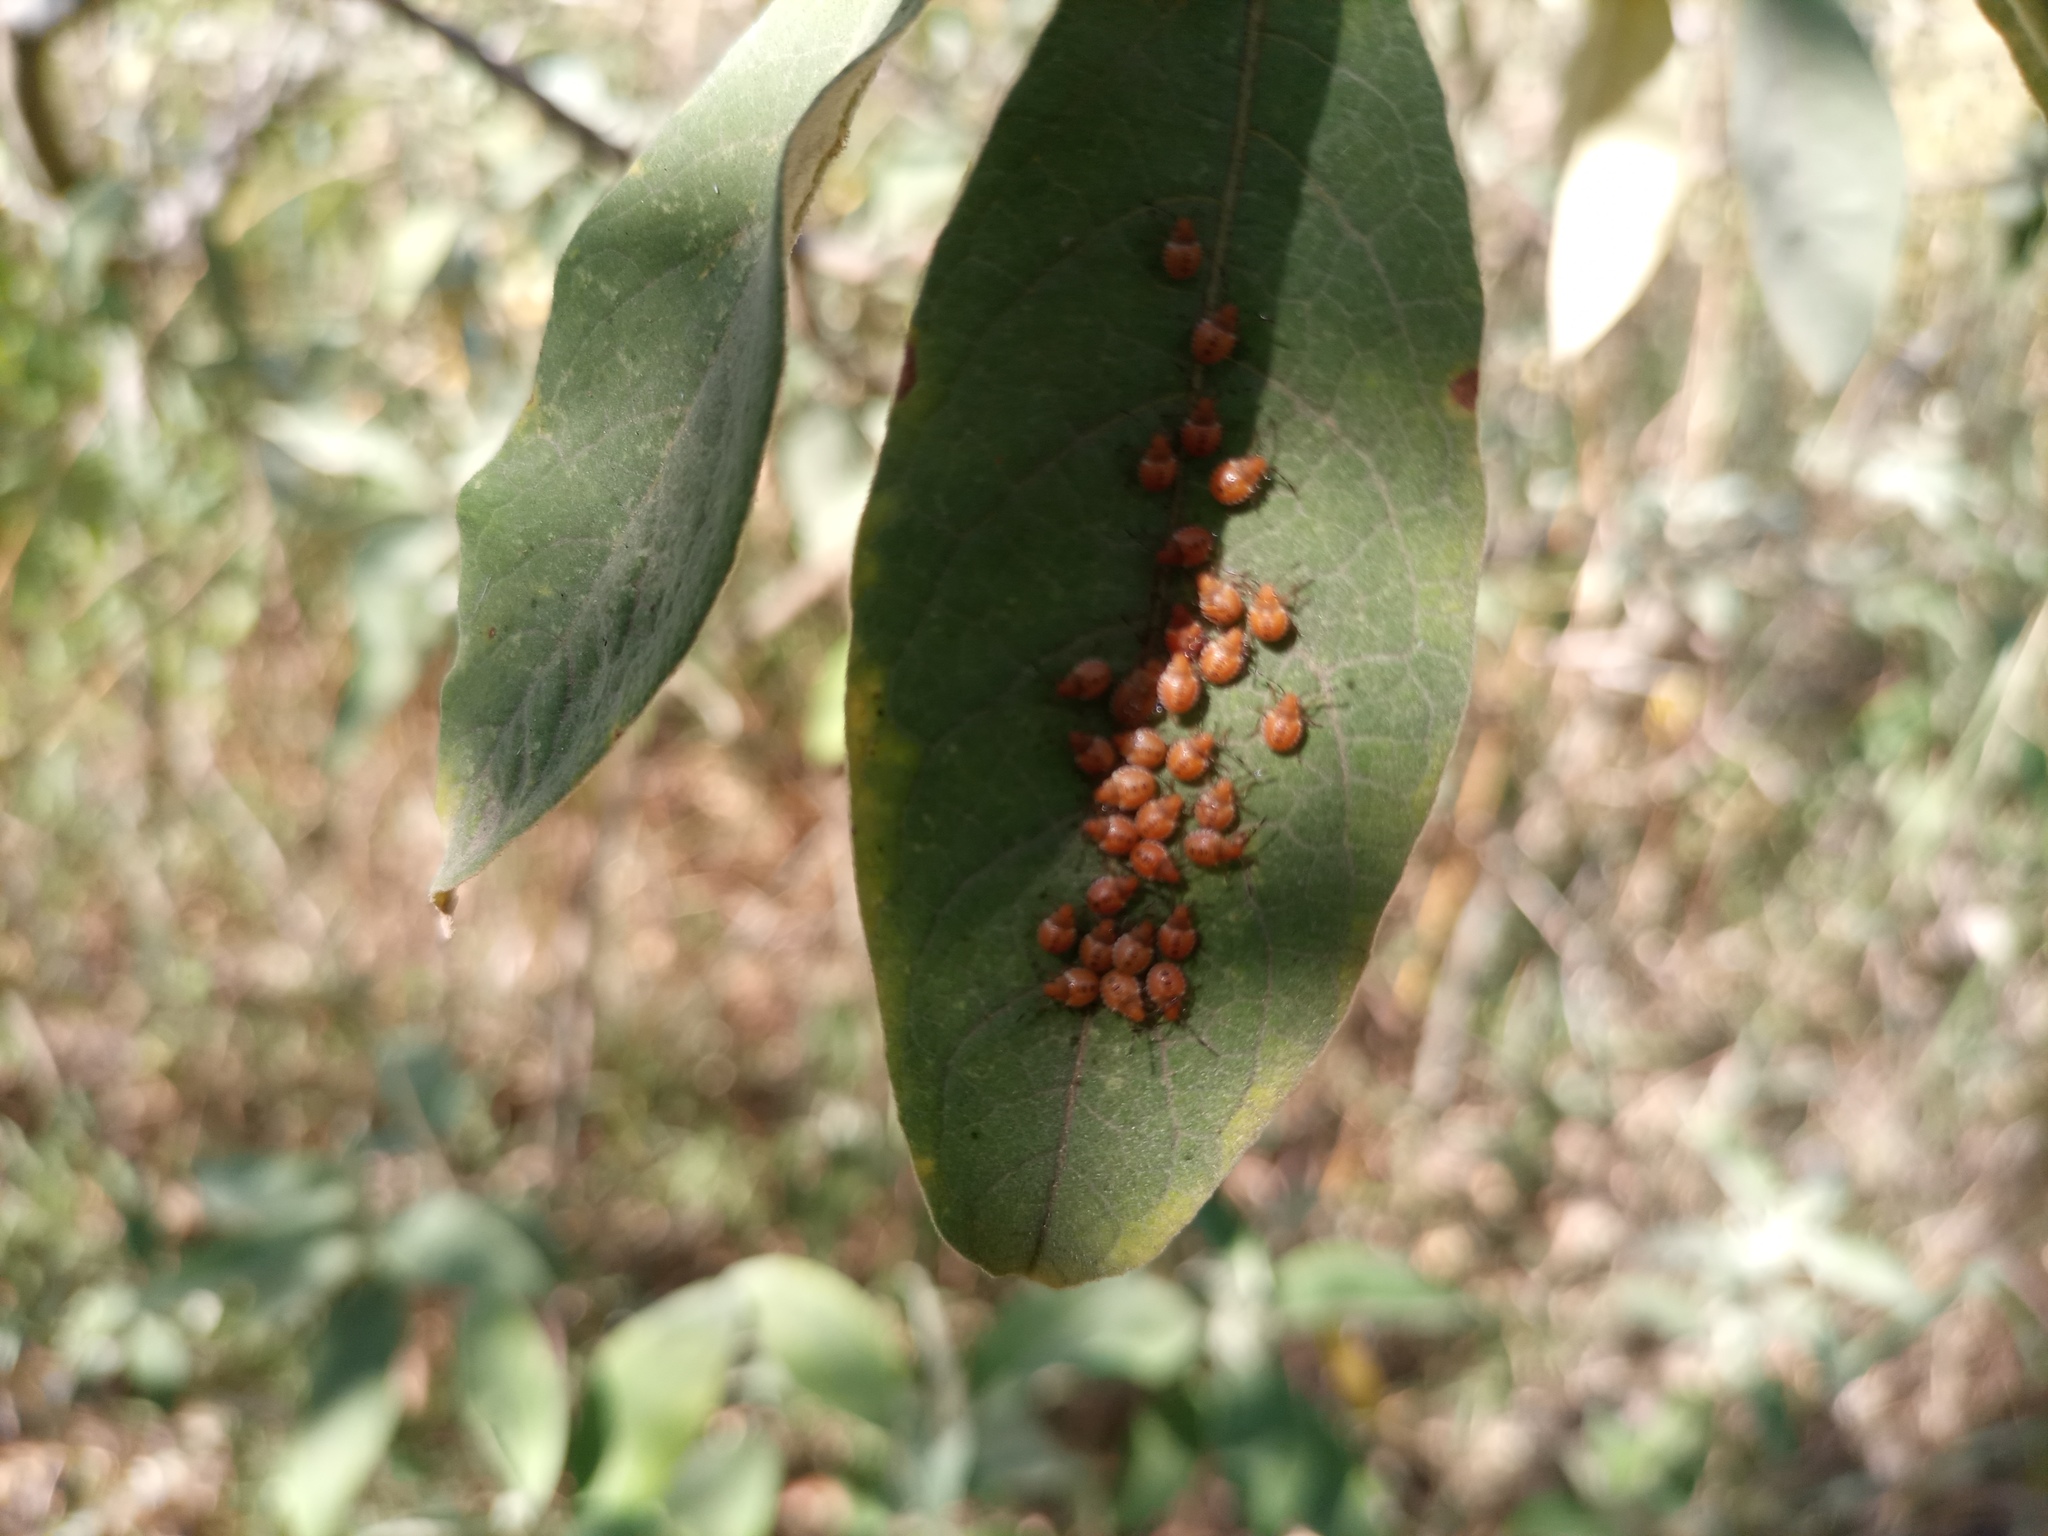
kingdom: Animalia
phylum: Arthropoda
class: Insecta
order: Hemiptera
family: Pentatomidae
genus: Arvelius
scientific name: Arvelius albopunctatus
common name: Tomato stink bug
